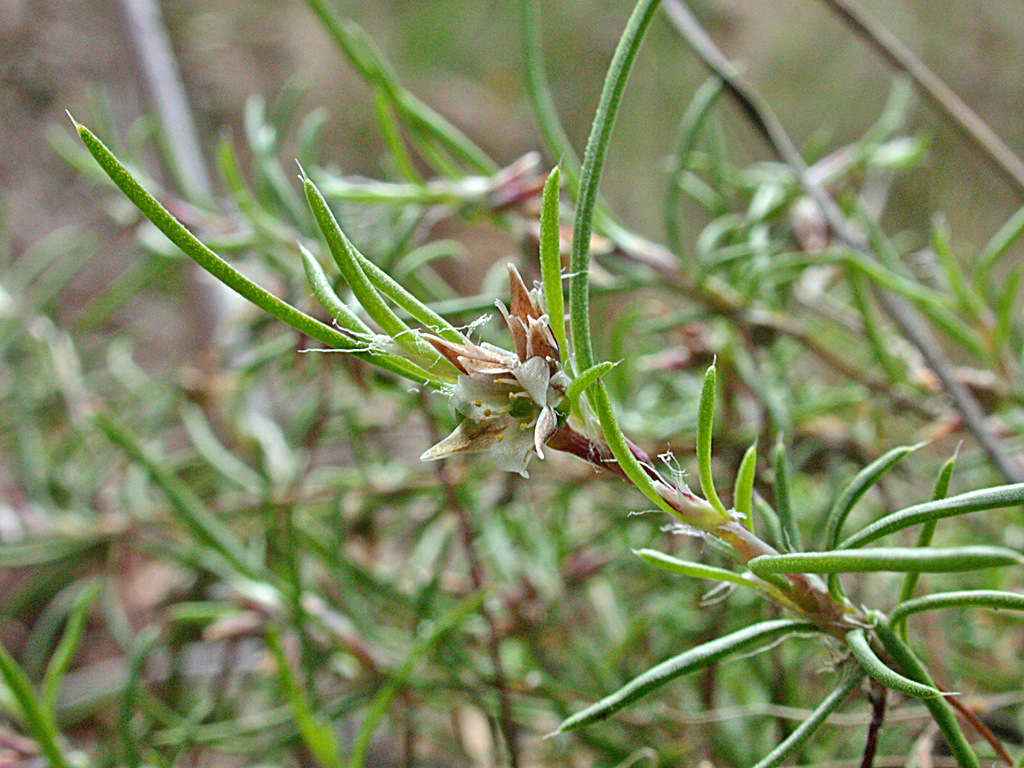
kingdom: Plantae
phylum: Tracheophyta
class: Liliopsida
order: Asparagales
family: Asparagaceae
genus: Laxmannia
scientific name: Laxmannia orientalis
